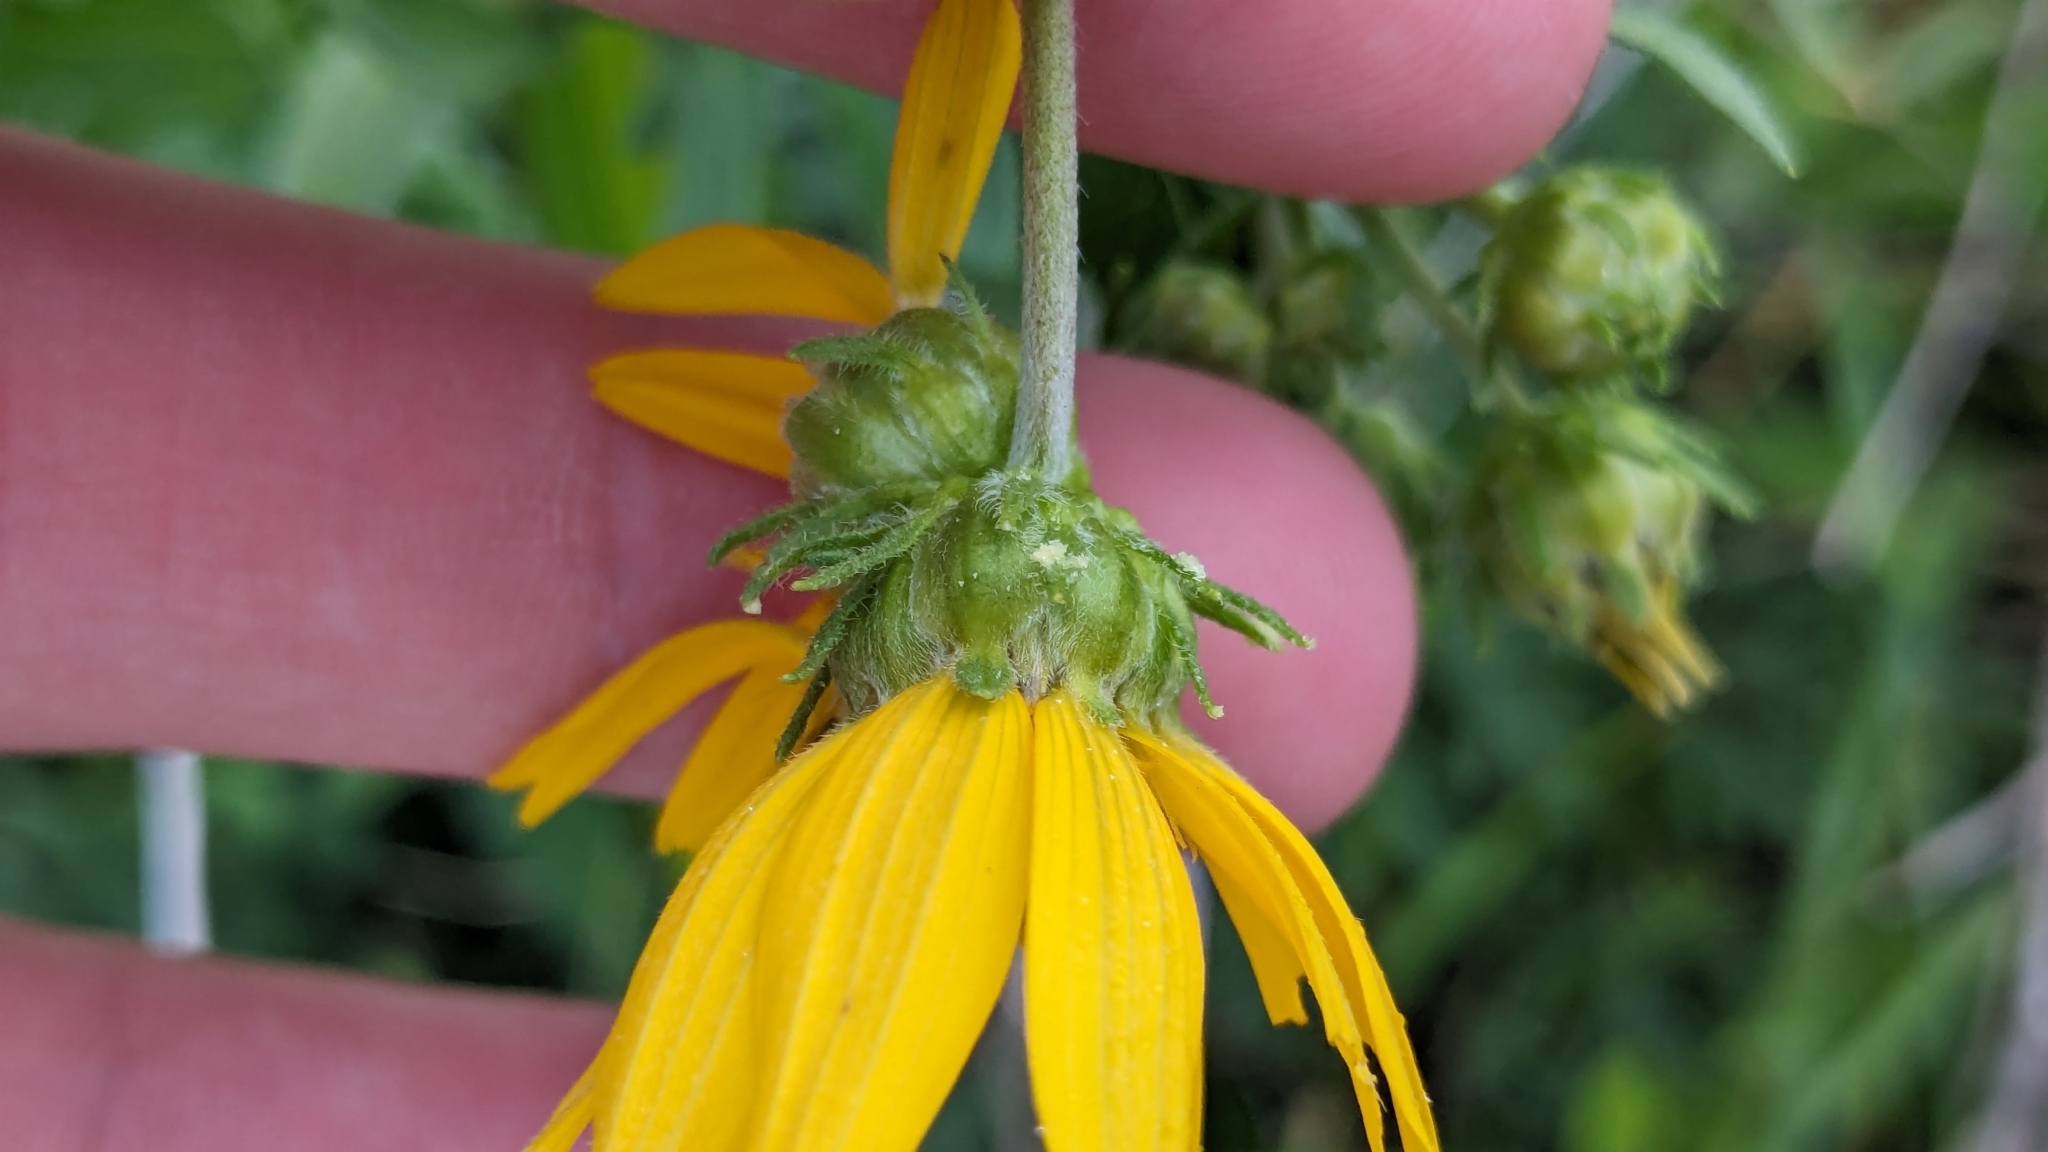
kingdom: Plantae
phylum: Tracheophyta
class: Magnoliopsida
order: Asterales
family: Asteraceae
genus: Engelmannia
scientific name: Engelmannia peristenia
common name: Engelmann's daisy
